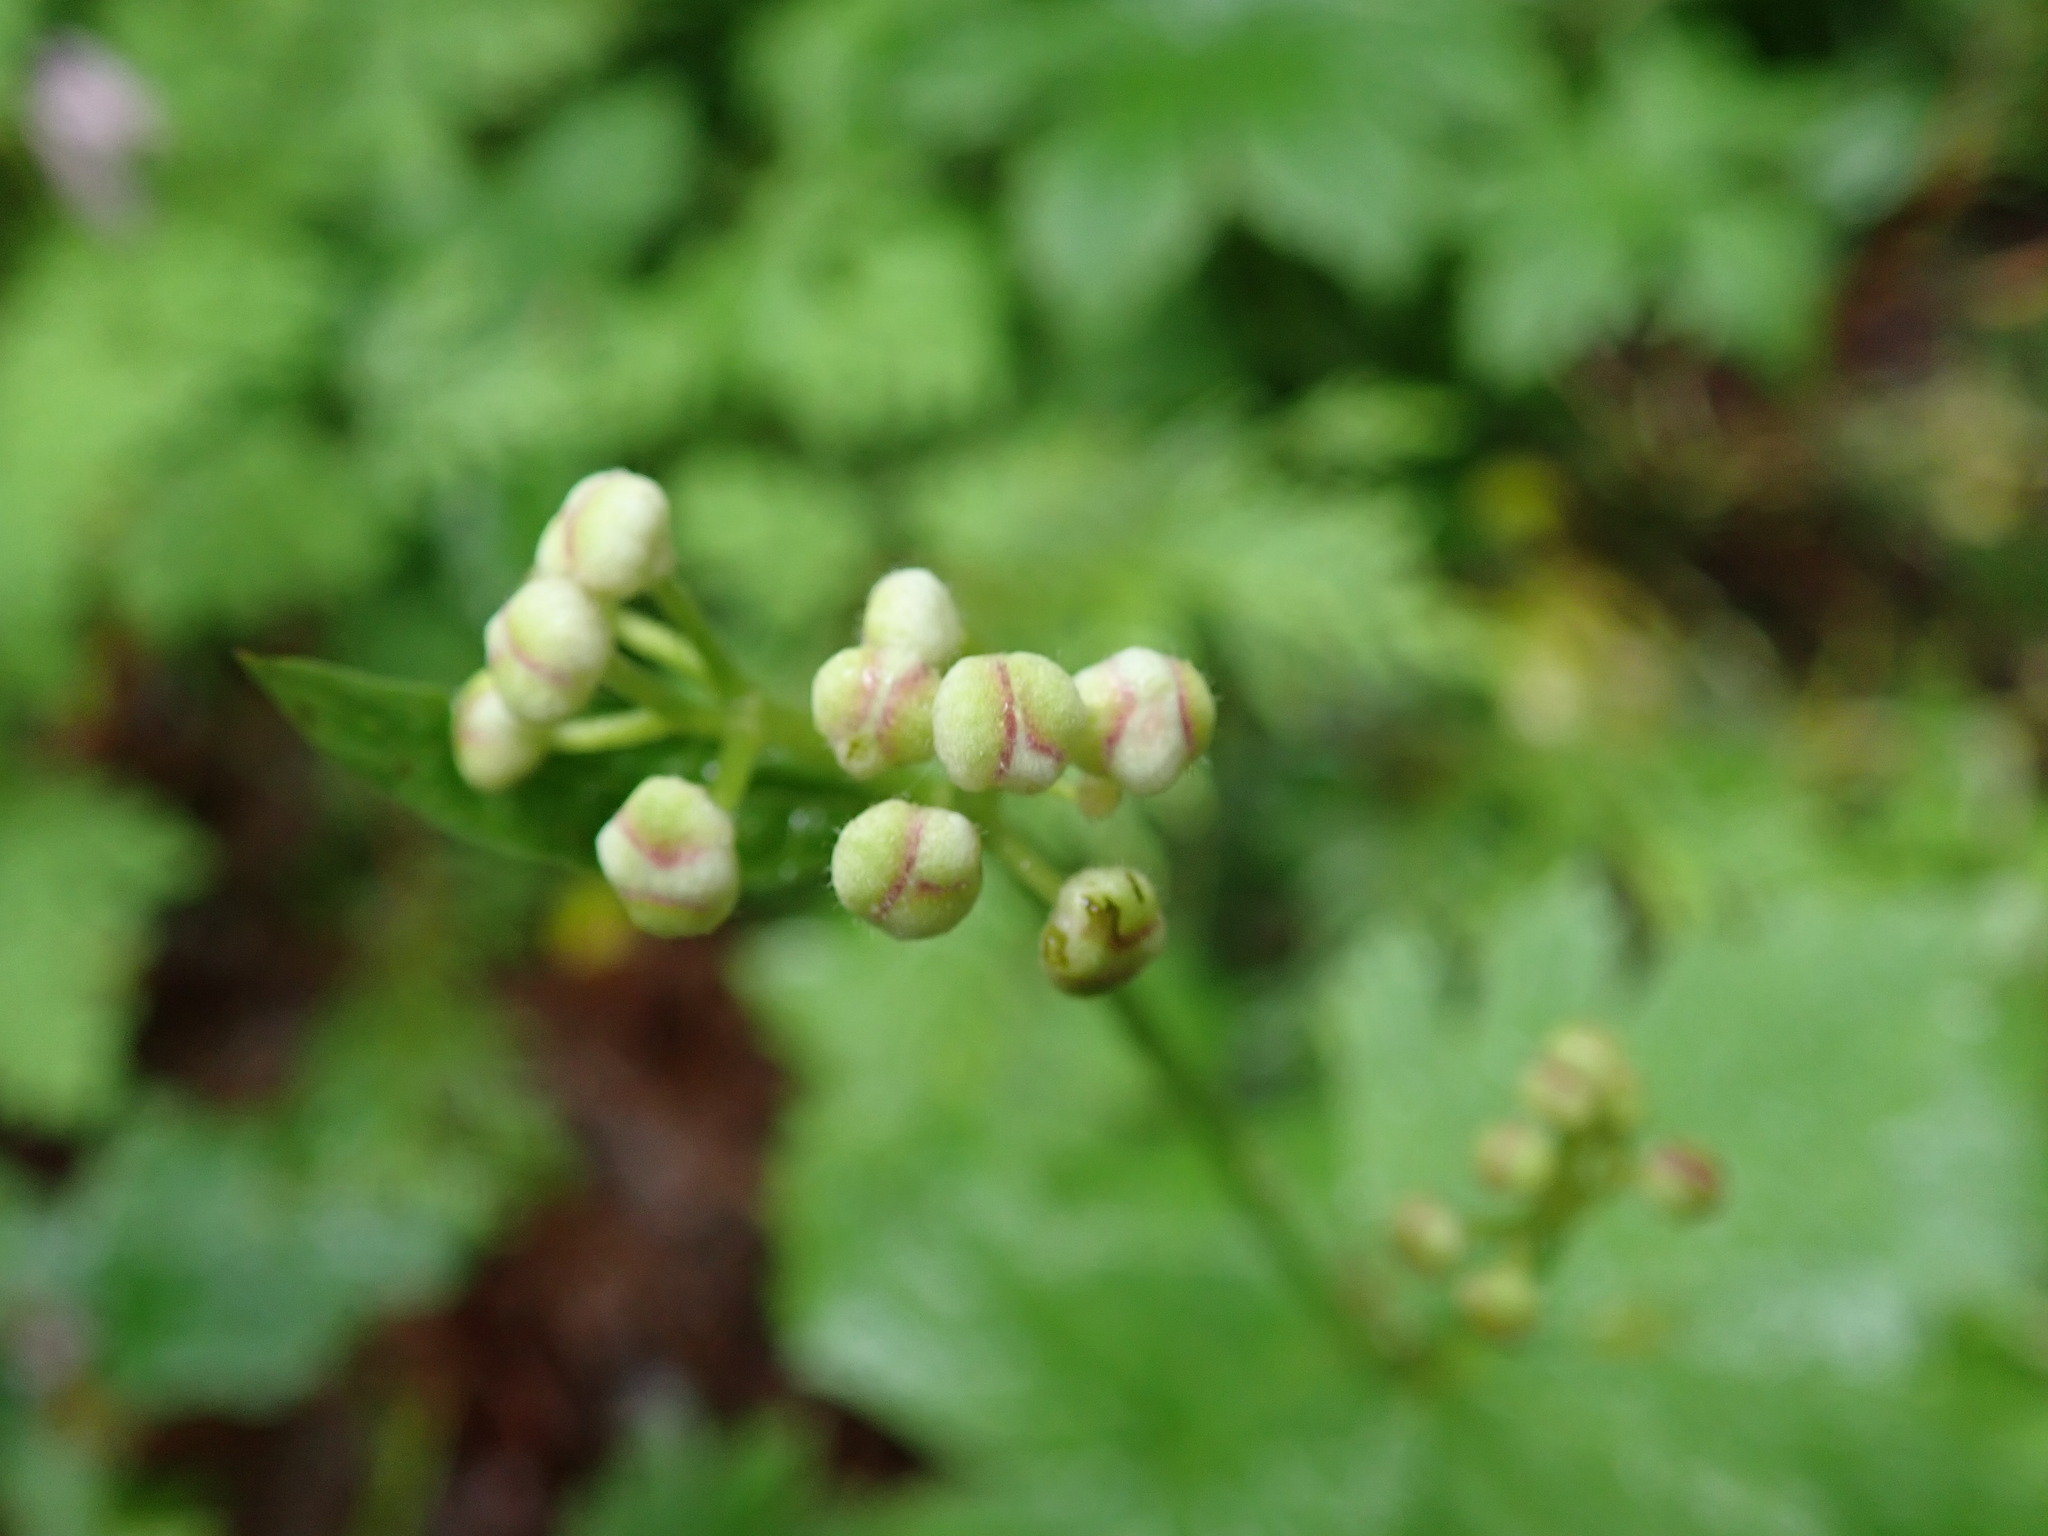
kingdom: Plantae
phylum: Tracheophyta
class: Magnoliopsida
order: Ranunculales
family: Ranunculaceae
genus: Trautvetteria
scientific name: Trautvetteria carolinensis
